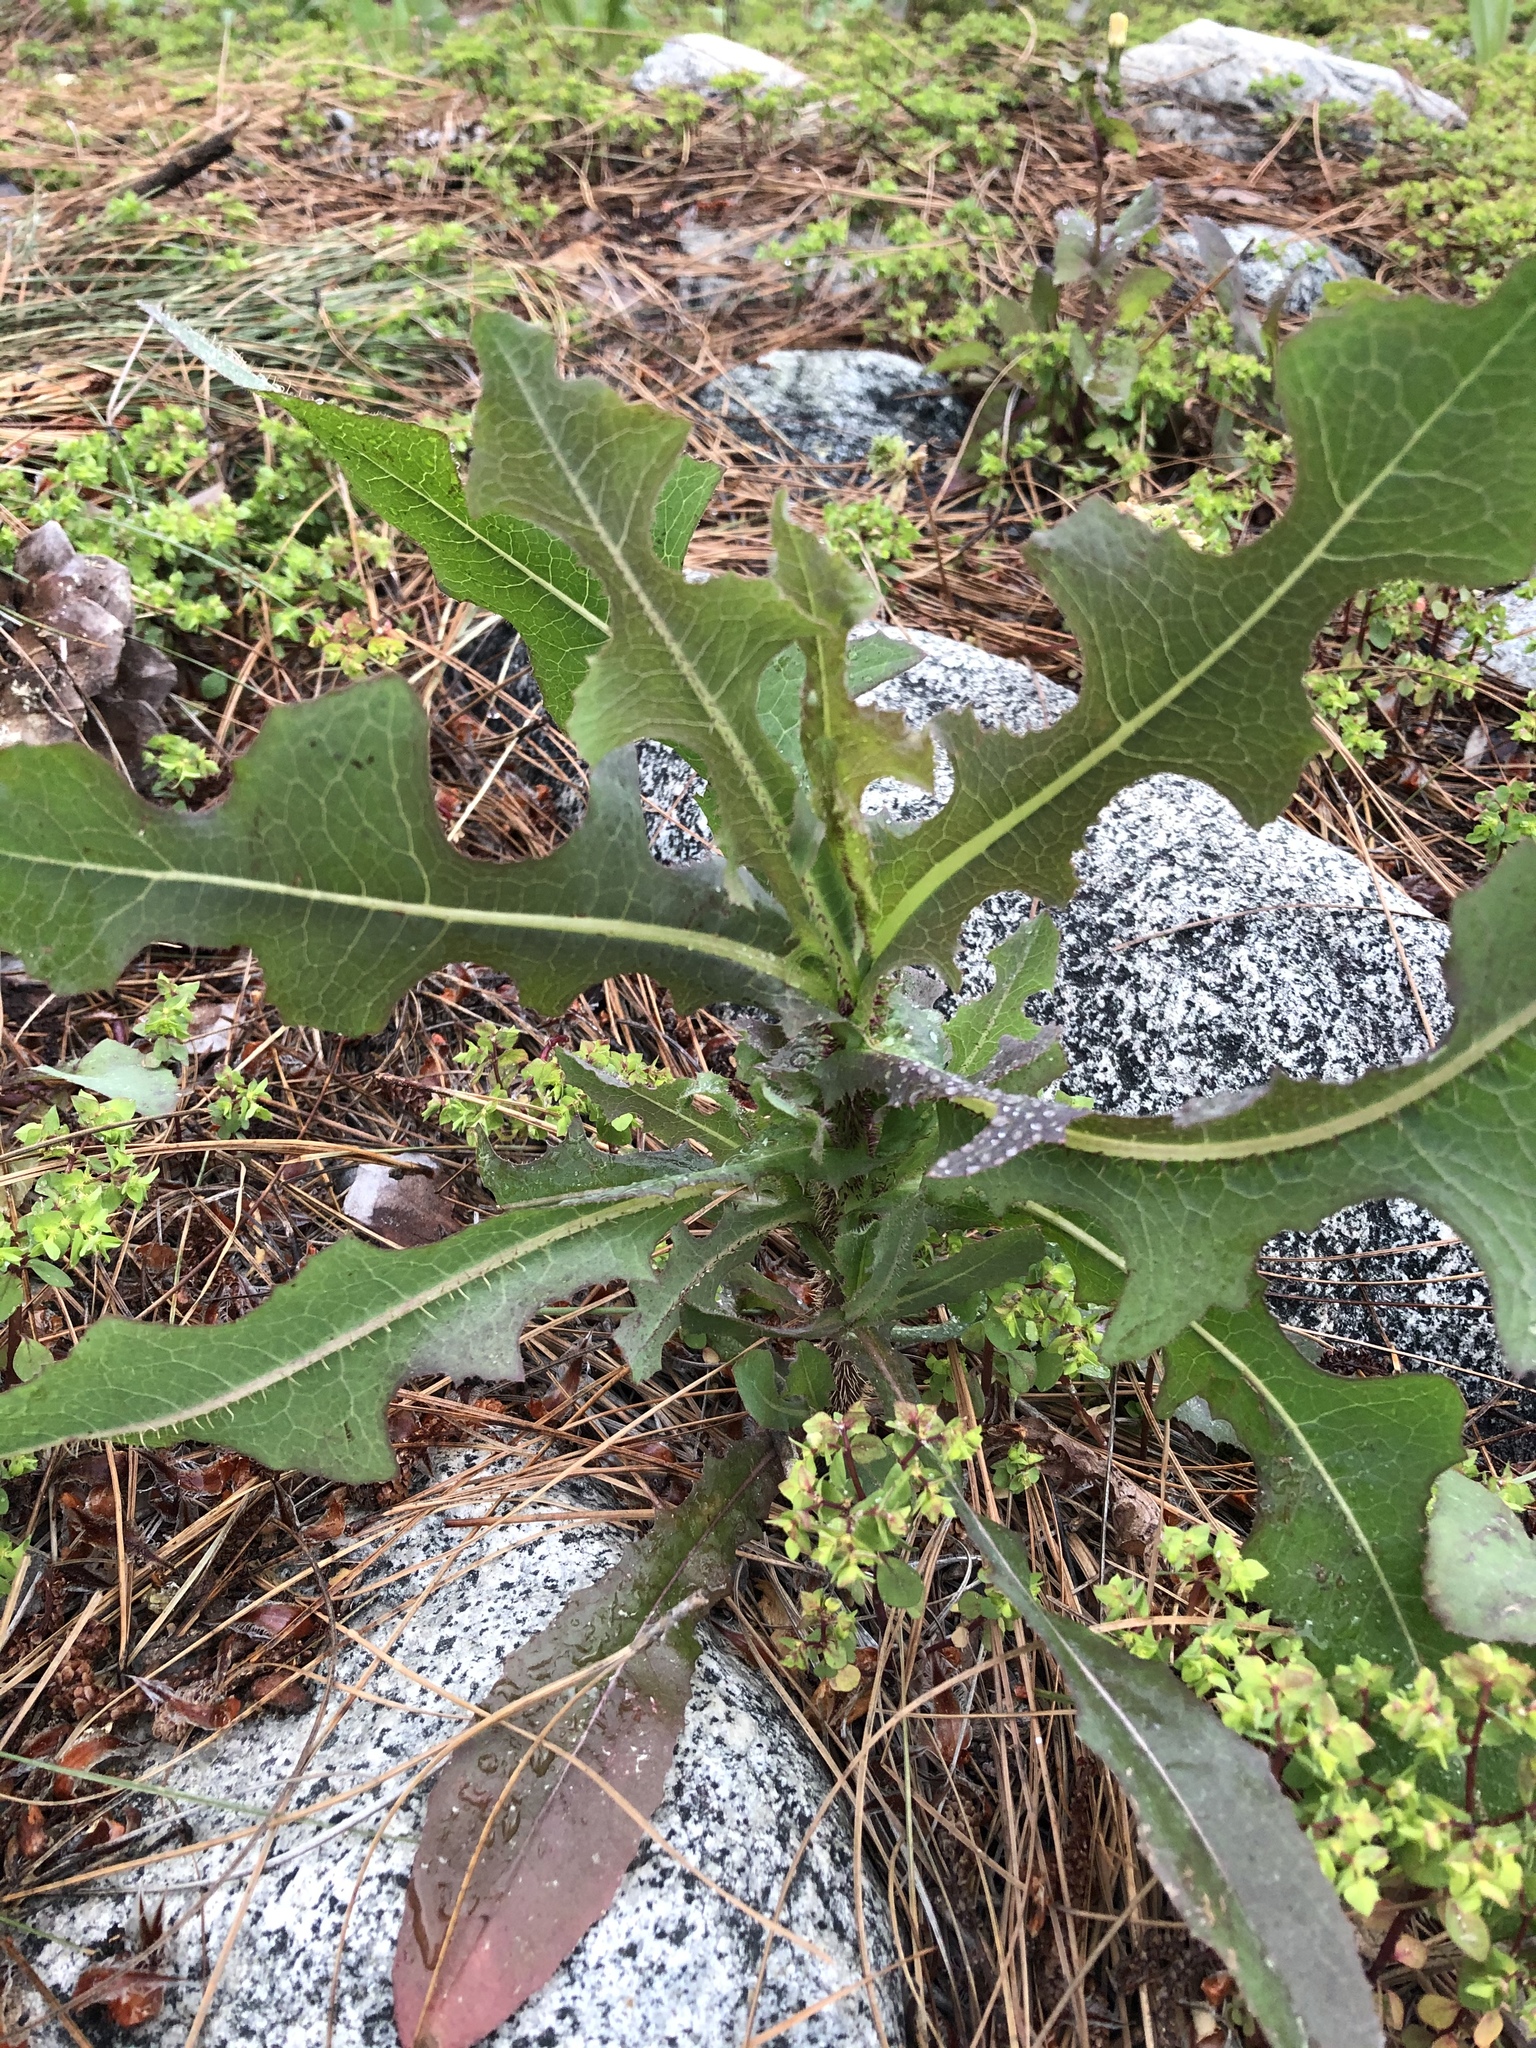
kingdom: Plantae
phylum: Tracheophyta
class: Magnoliopsida
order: Asterales
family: Asteraceae
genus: Lactuca
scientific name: Lactuca serriola
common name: Prickly lettuce
